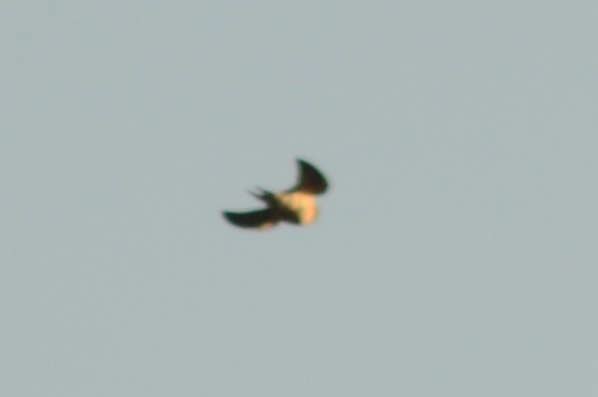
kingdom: Animalia
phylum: Chordata
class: Aves
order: Passeriformes
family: Hirundinidae
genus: Hirundo
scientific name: Hirundo rustica
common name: Barn swallow
